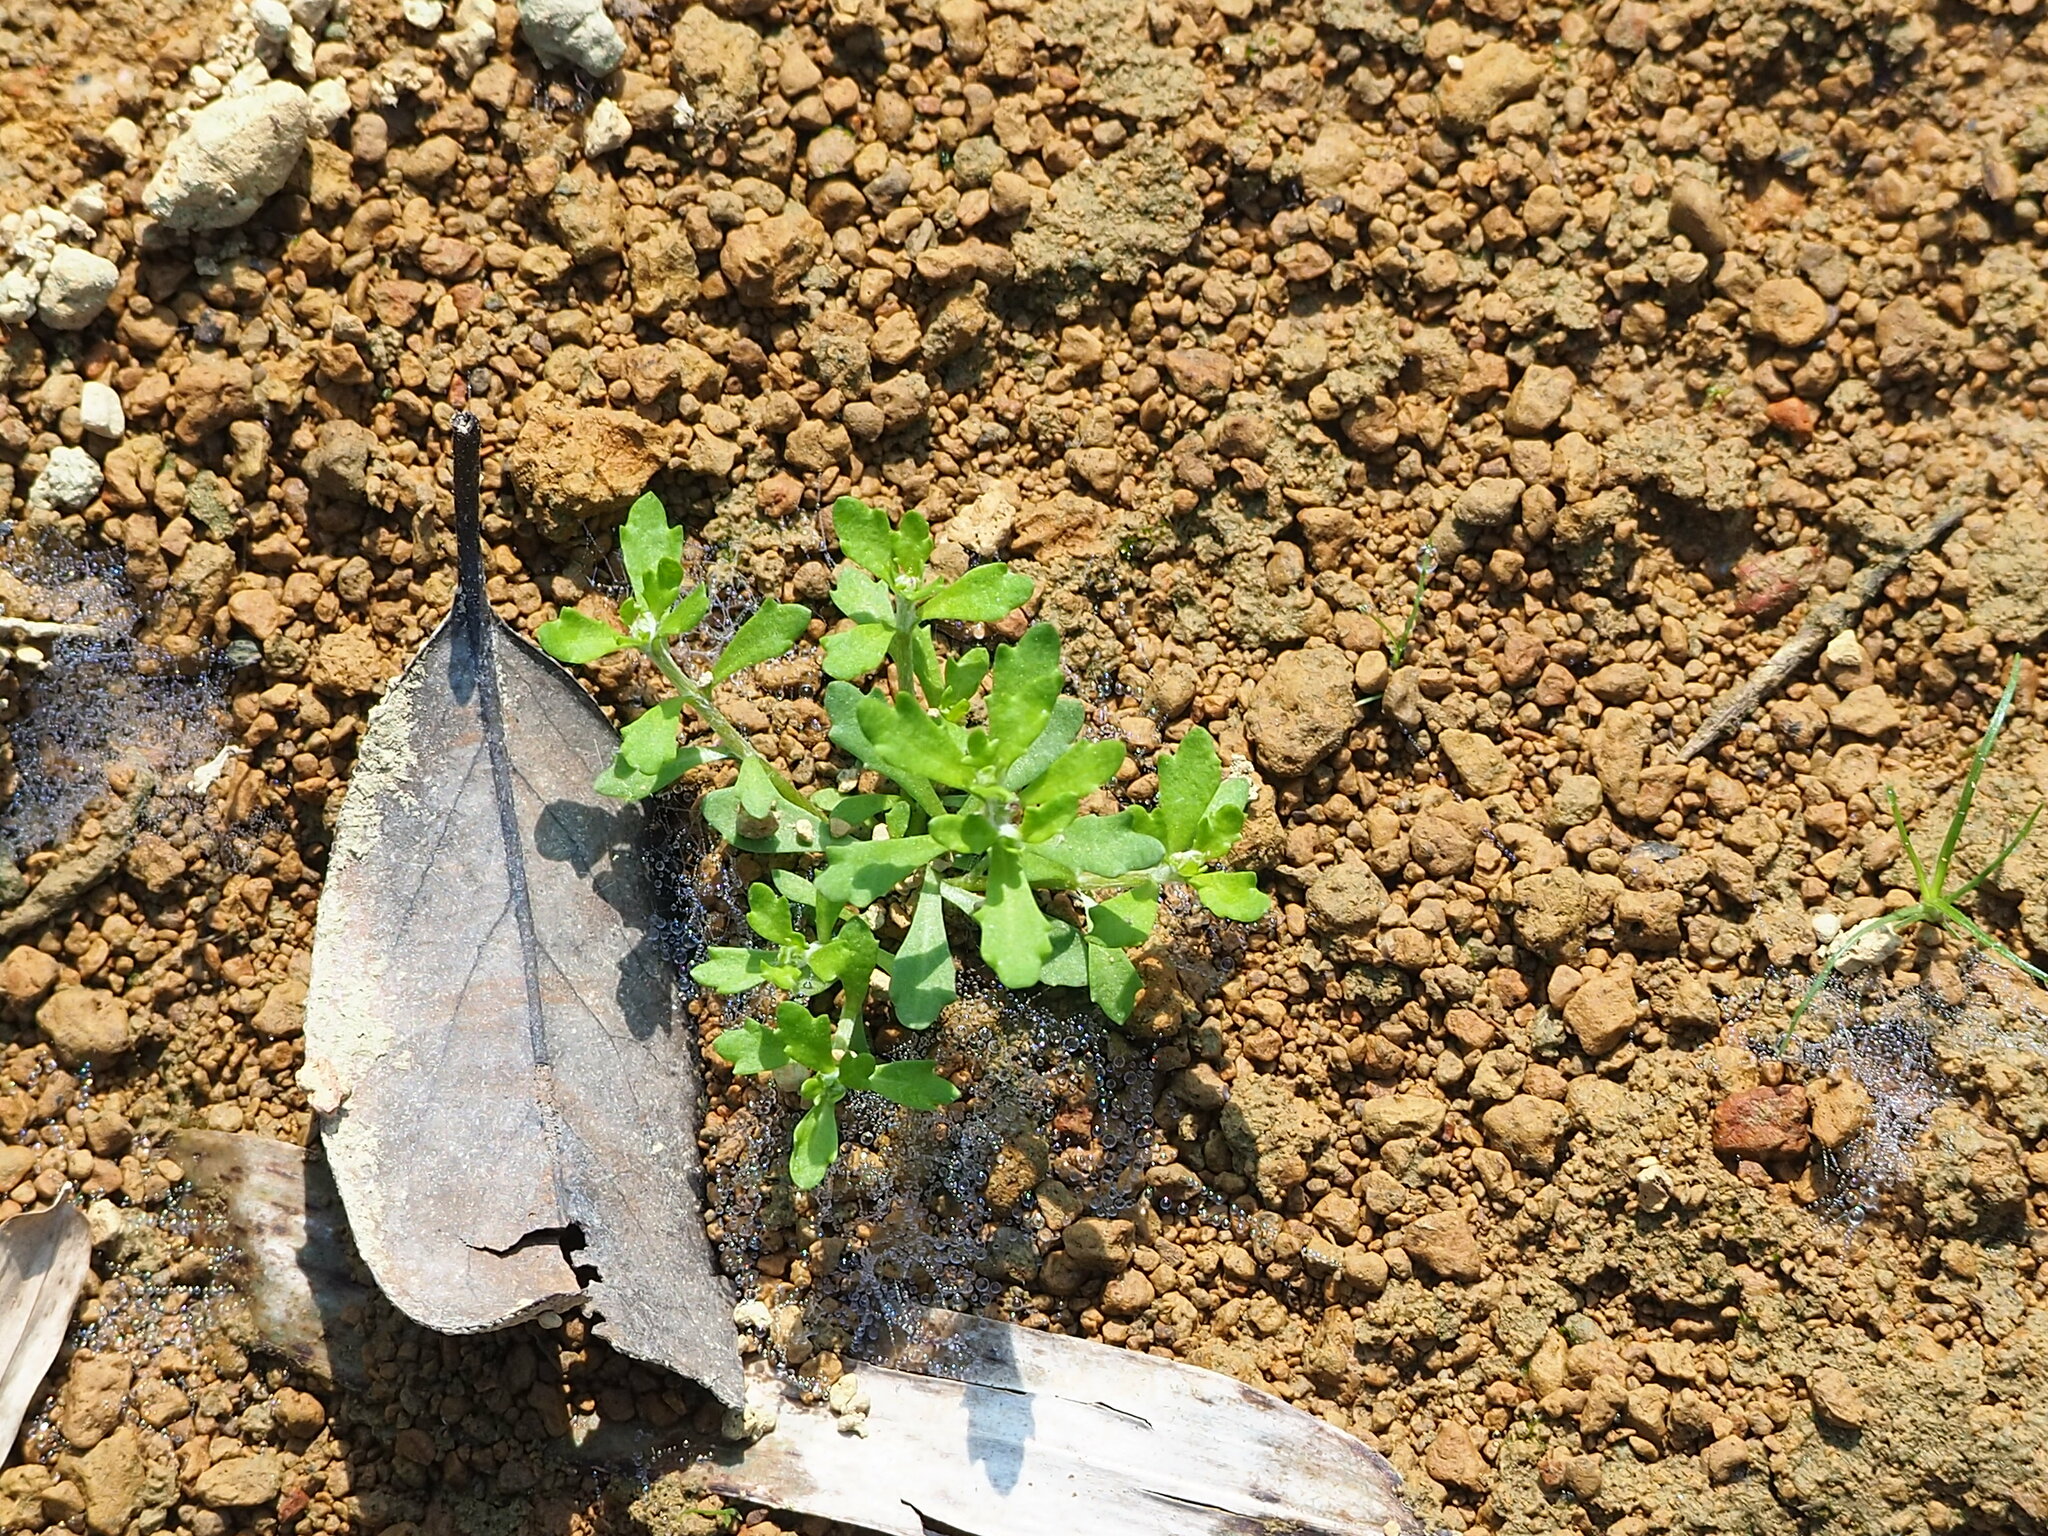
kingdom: Plantae
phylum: Tracheophyta
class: Magnoliopsida
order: Asterales
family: Asteraceae
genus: Centipeda
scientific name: Centipeda minima
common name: Spreading sneezeweed
